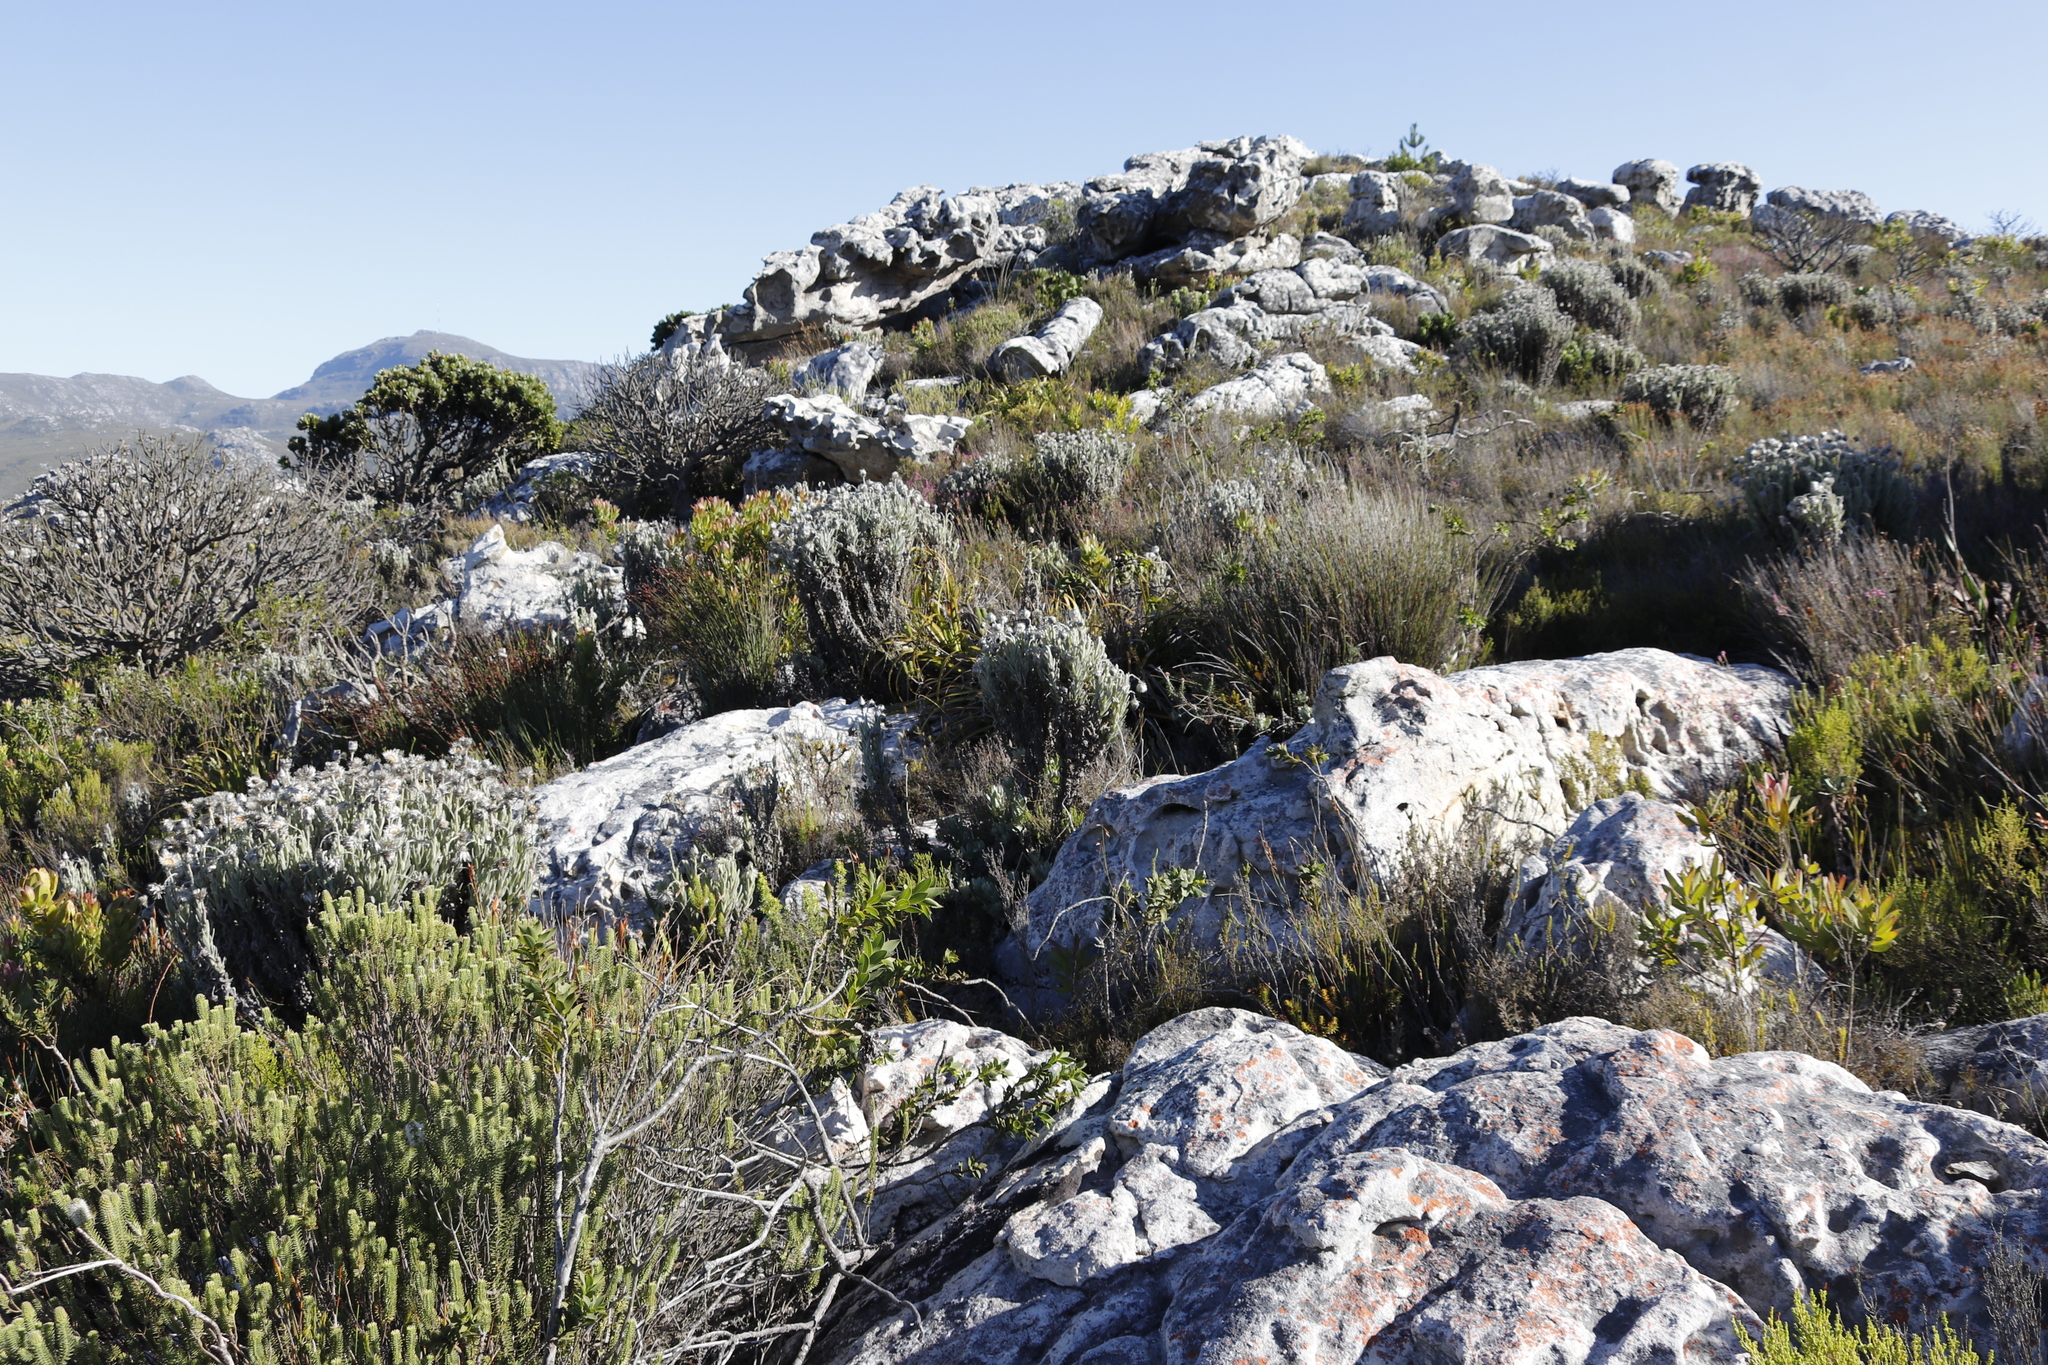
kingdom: Plantae
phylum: Tracheophyta
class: Magnoliopsida
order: Asterales
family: Asteraceae
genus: Syncarpha
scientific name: Syncarpha vestita
